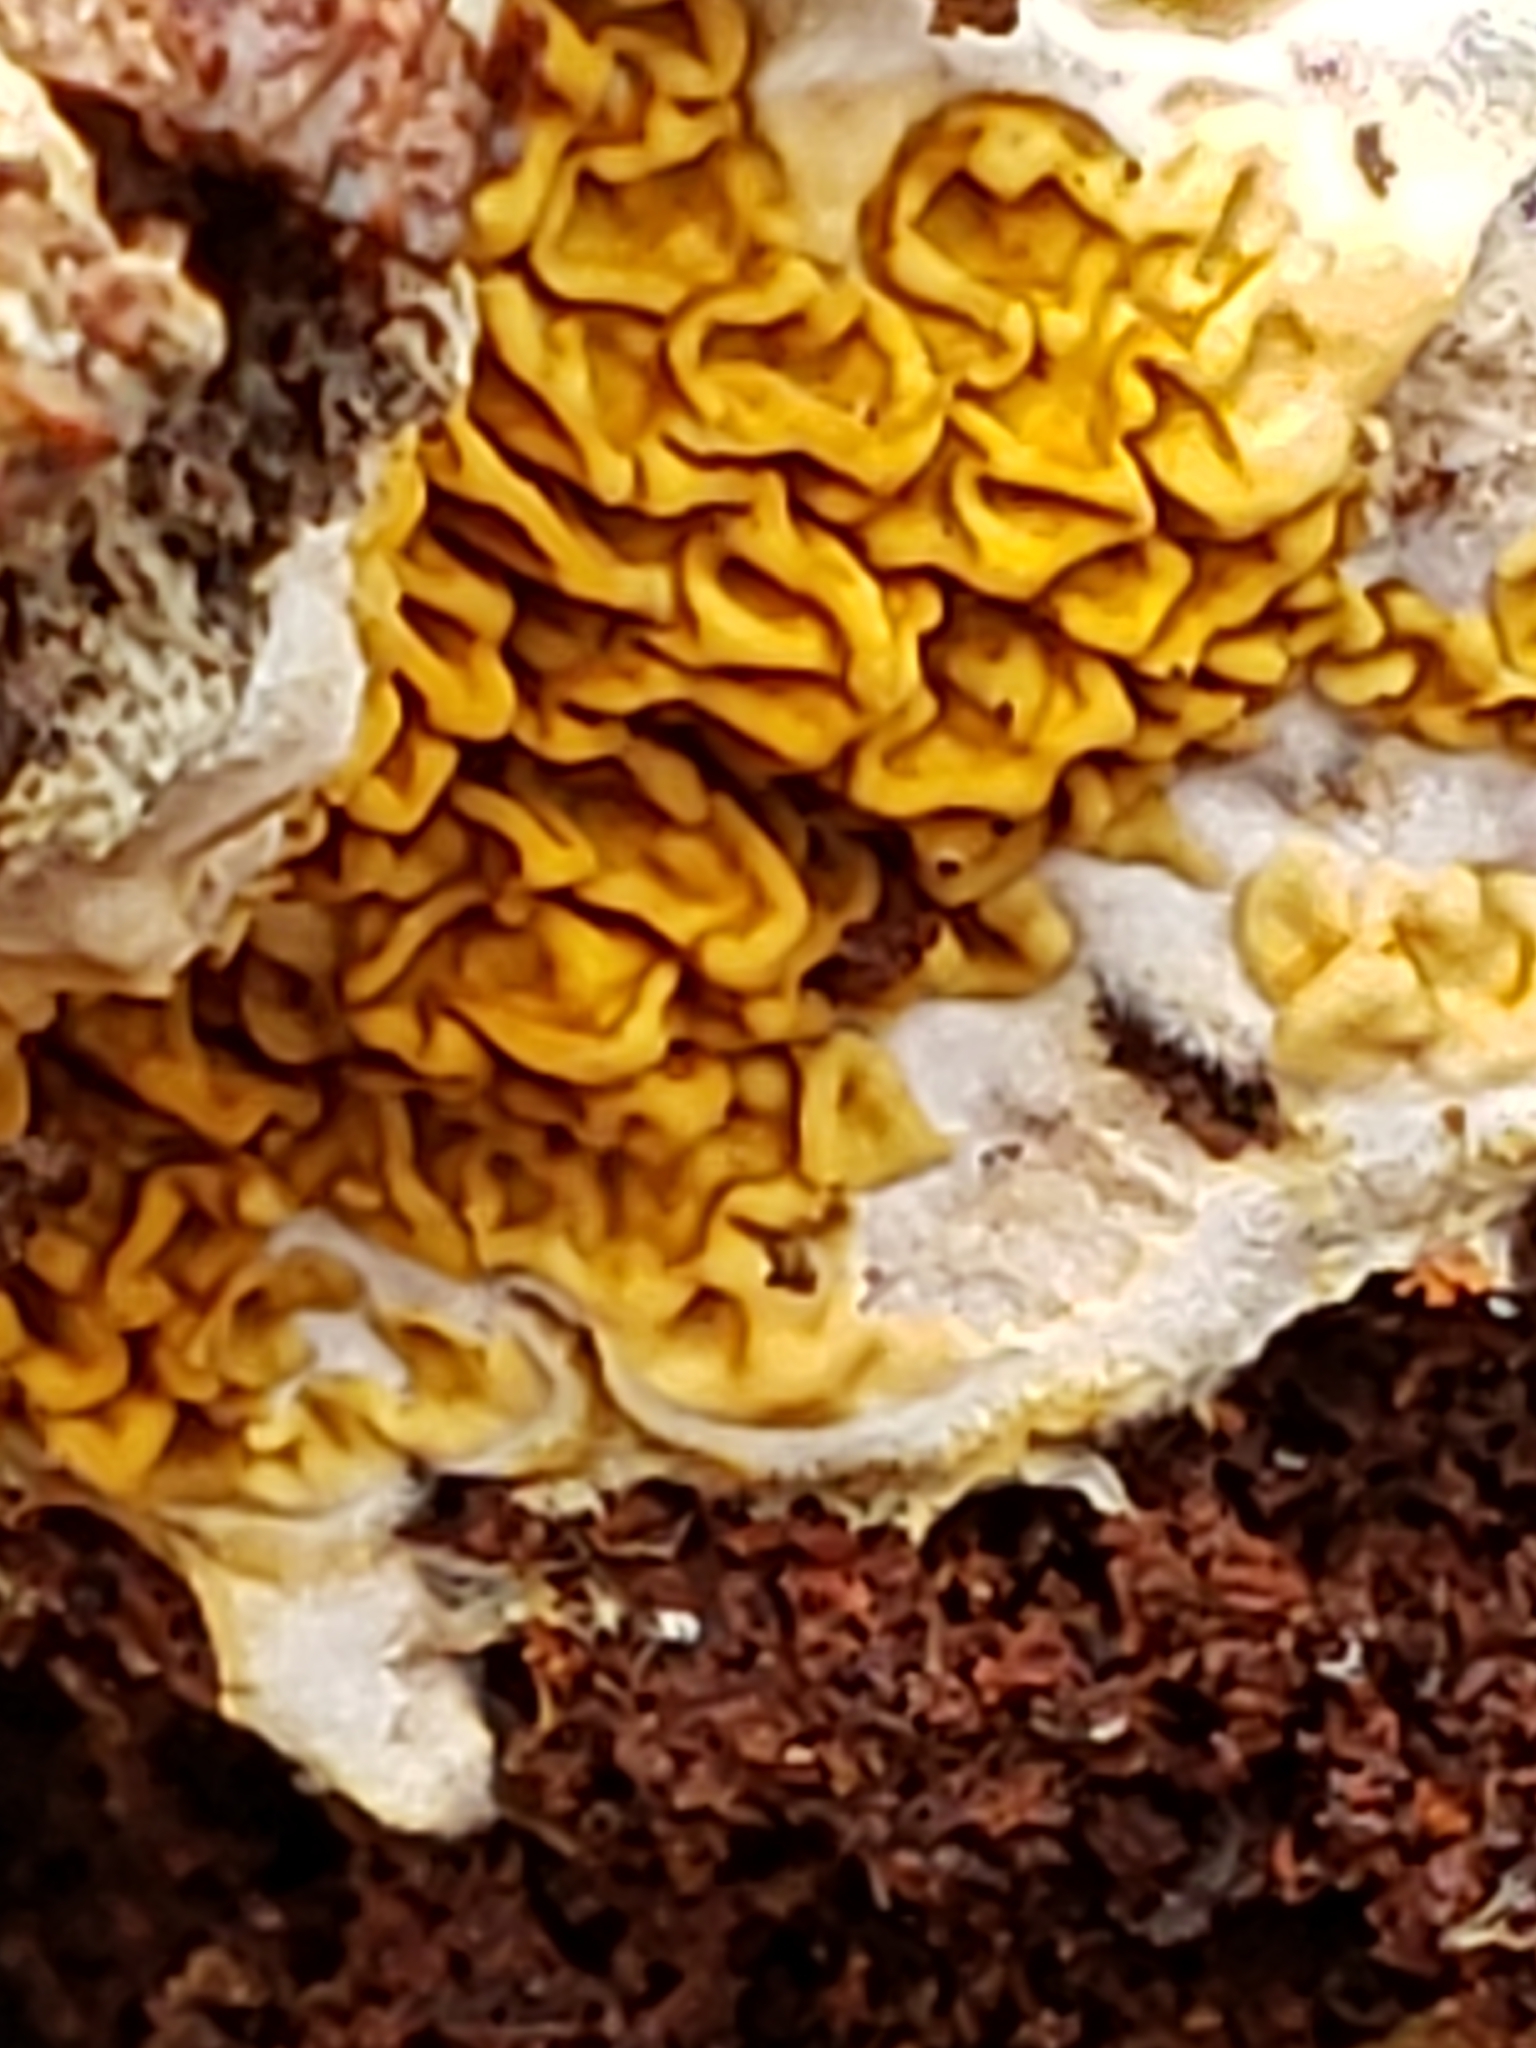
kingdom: Fungi
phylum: Basidiomycota
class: Agaricomycetes
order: Boletales
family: Serpulaceae
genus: Serpula
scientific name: Serpula himantioides
